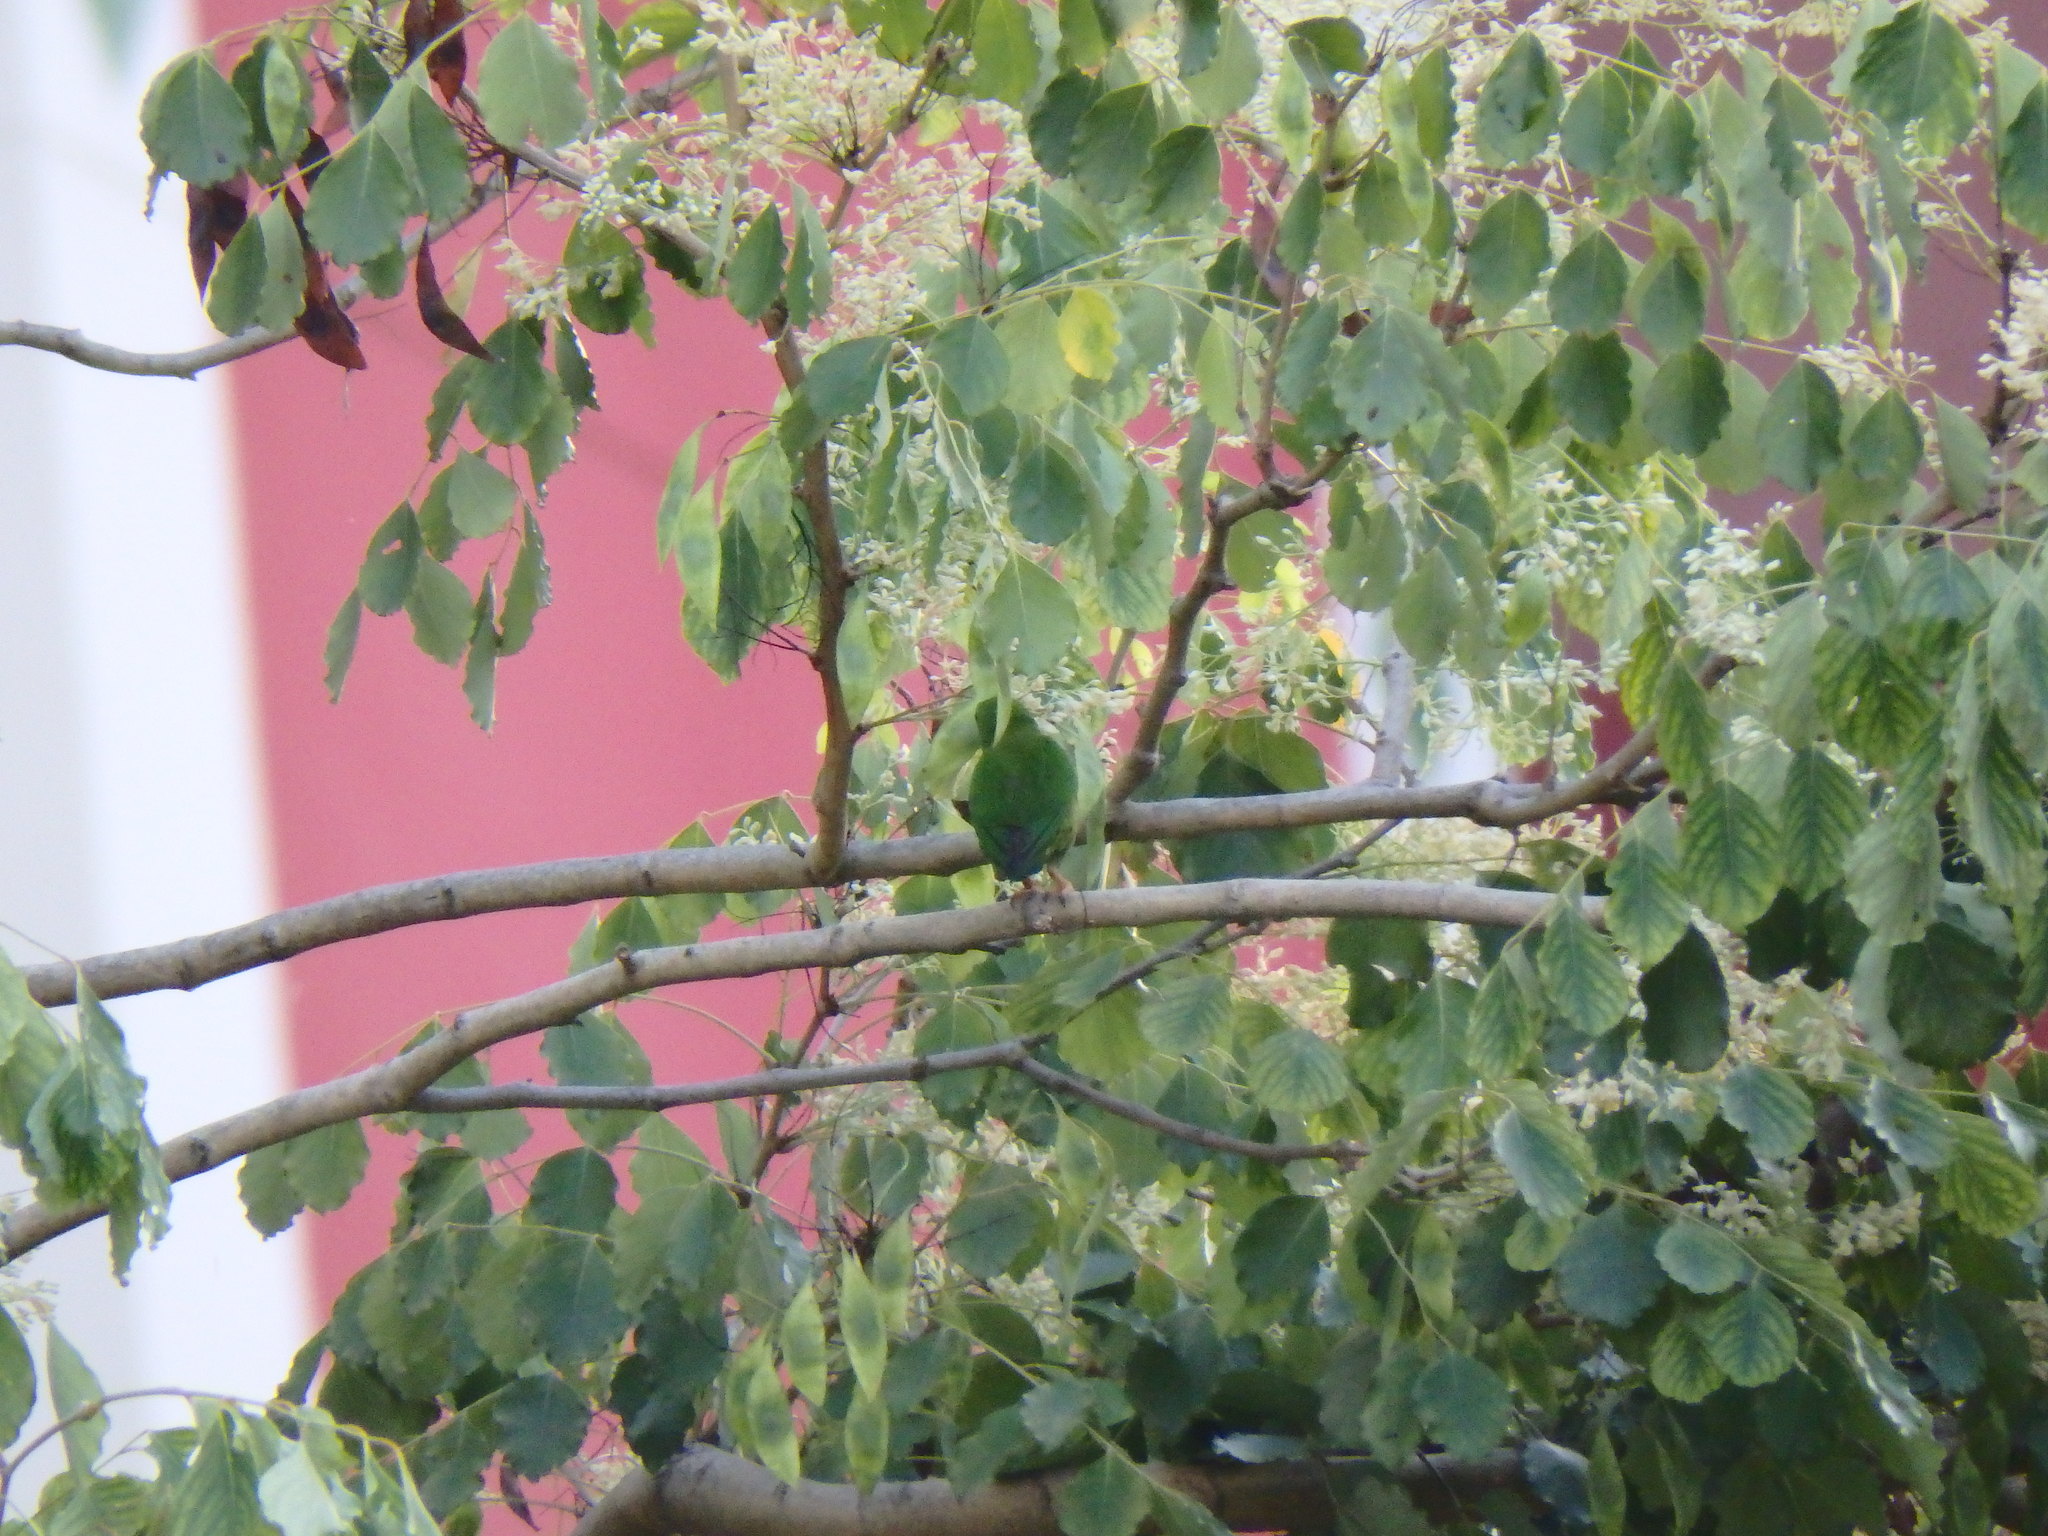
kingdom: Animalia
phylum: Chordata
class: Aves
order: Psittaciformes
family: Psittacidae
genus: Loriculus
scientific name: Loriculus galgulus
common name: Blue-crowned hanging parrot
